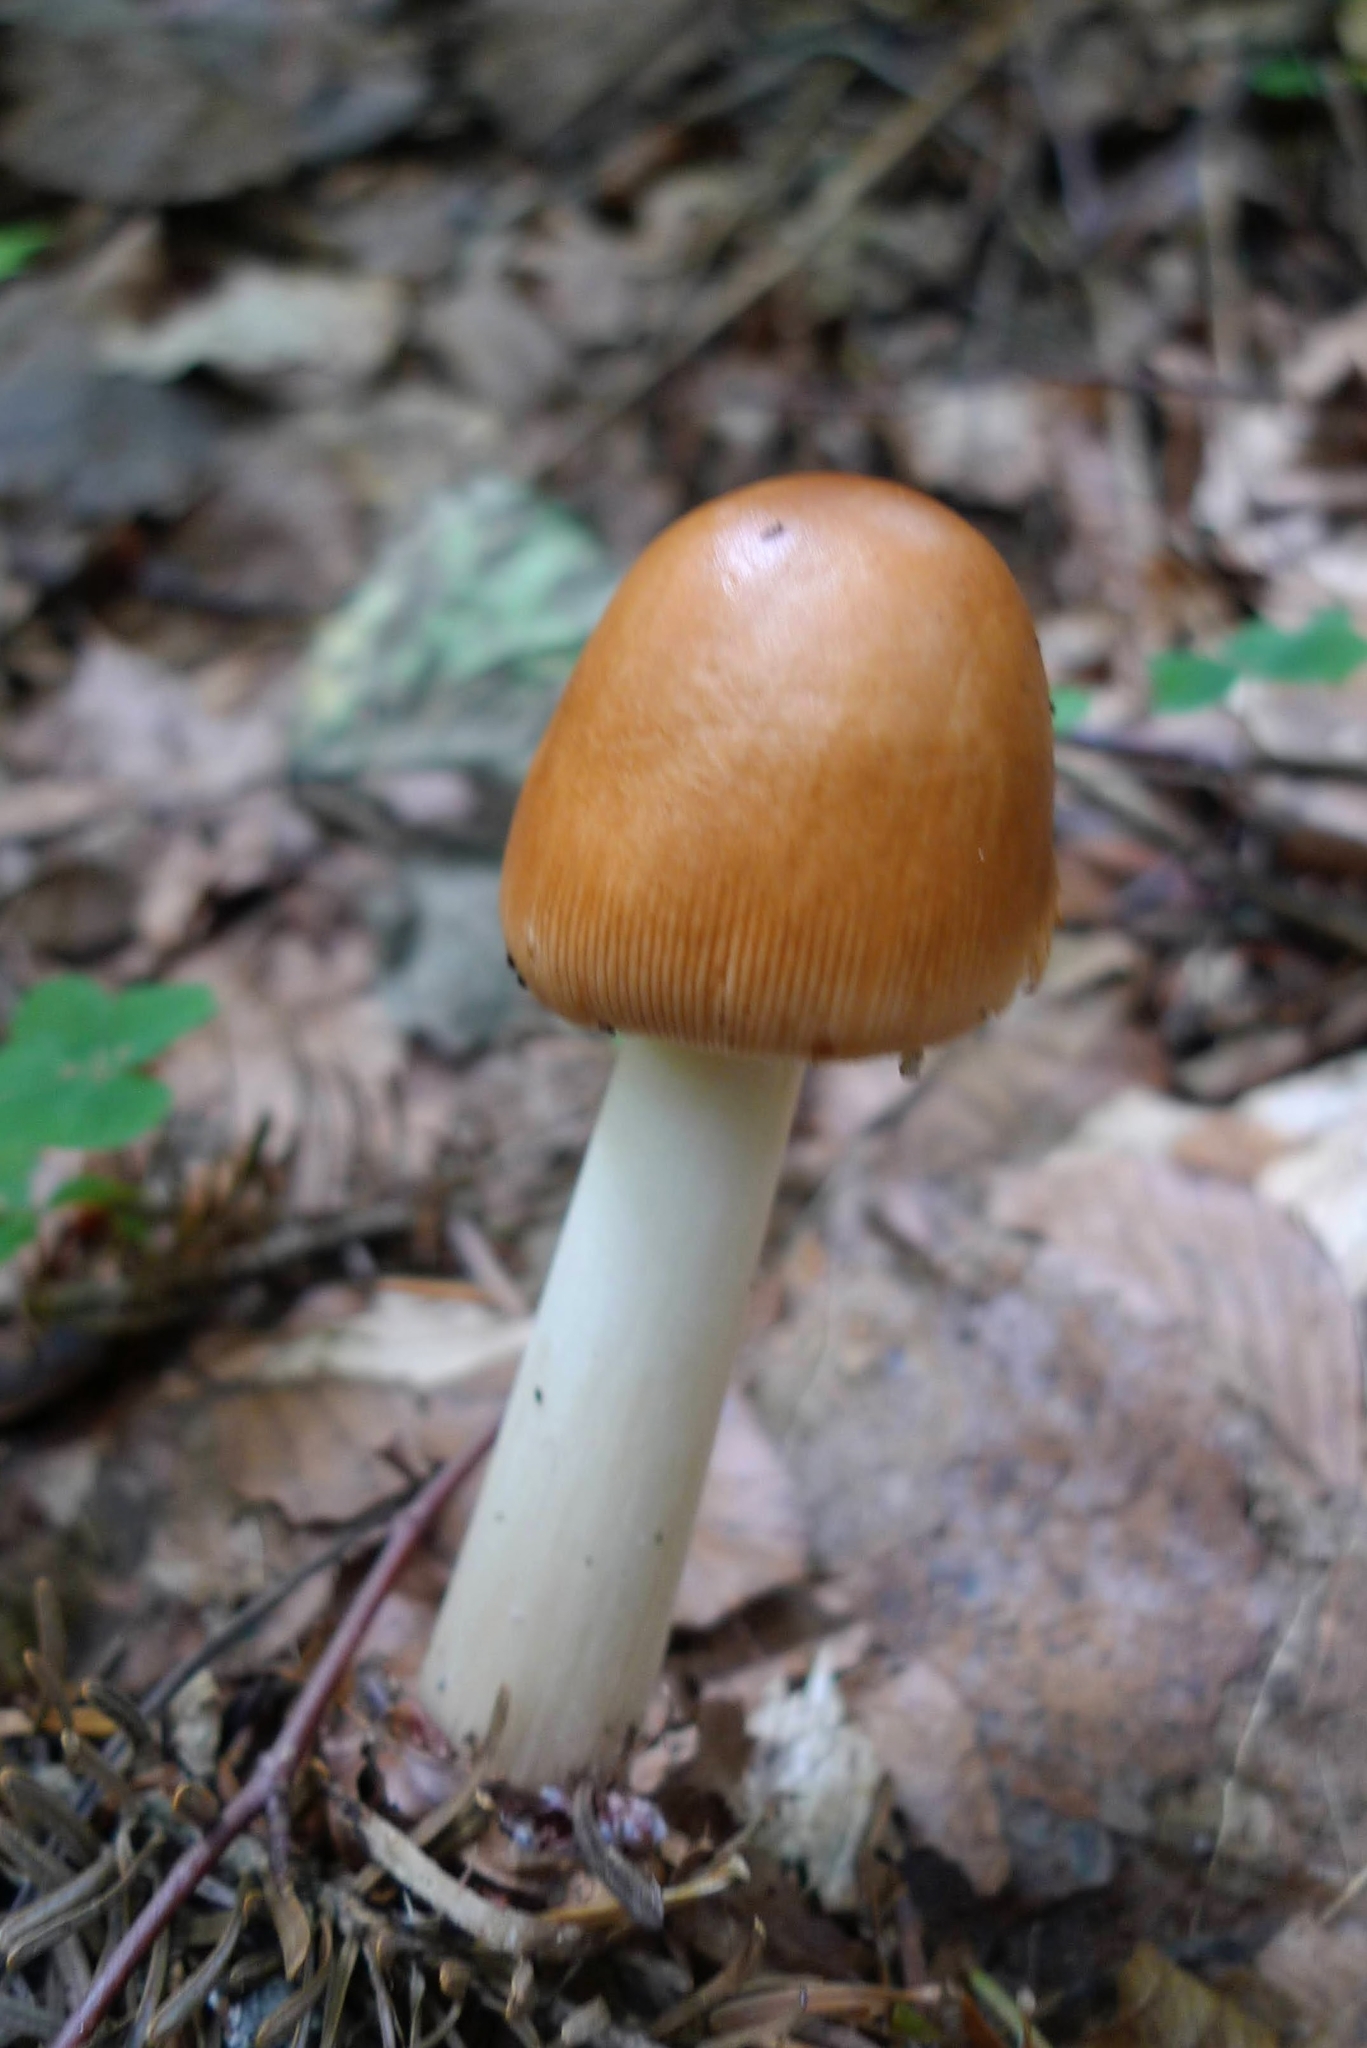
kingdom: Fungi
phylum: Basidiomycota
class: Agaricomycetes
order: Agaricales
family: Amanitaceae
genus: Amanita
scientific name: Amanita fulva
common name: Tawny grisette
